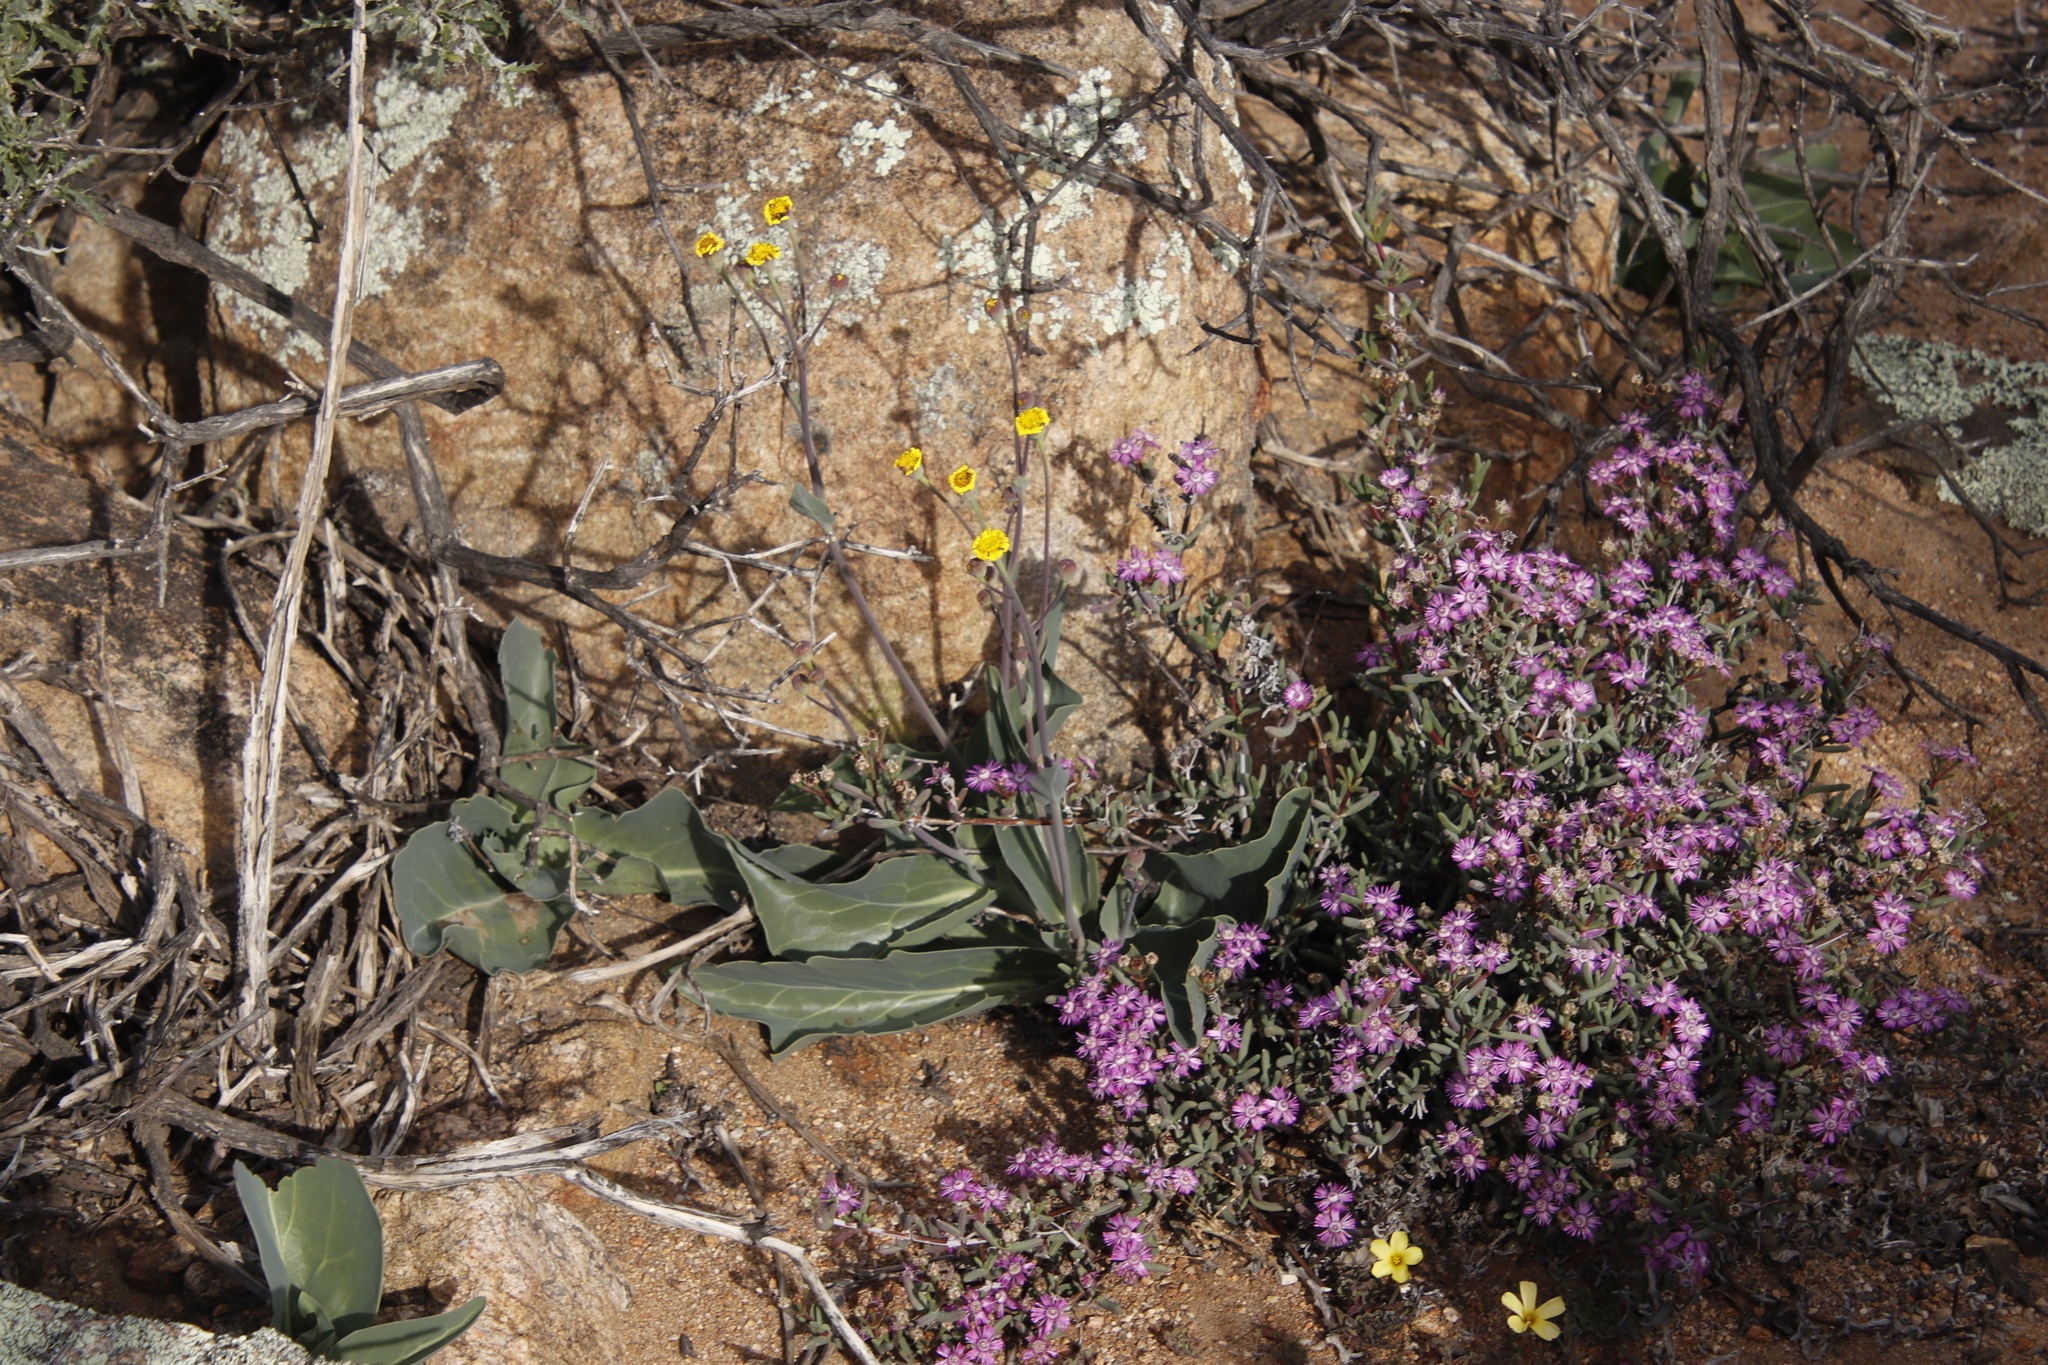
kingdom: Plantae
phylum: Tracheophyta
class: Magnoliopsida
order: Asterales
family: Asteraceae
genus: Othonna
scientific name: Othonna macrophylla
